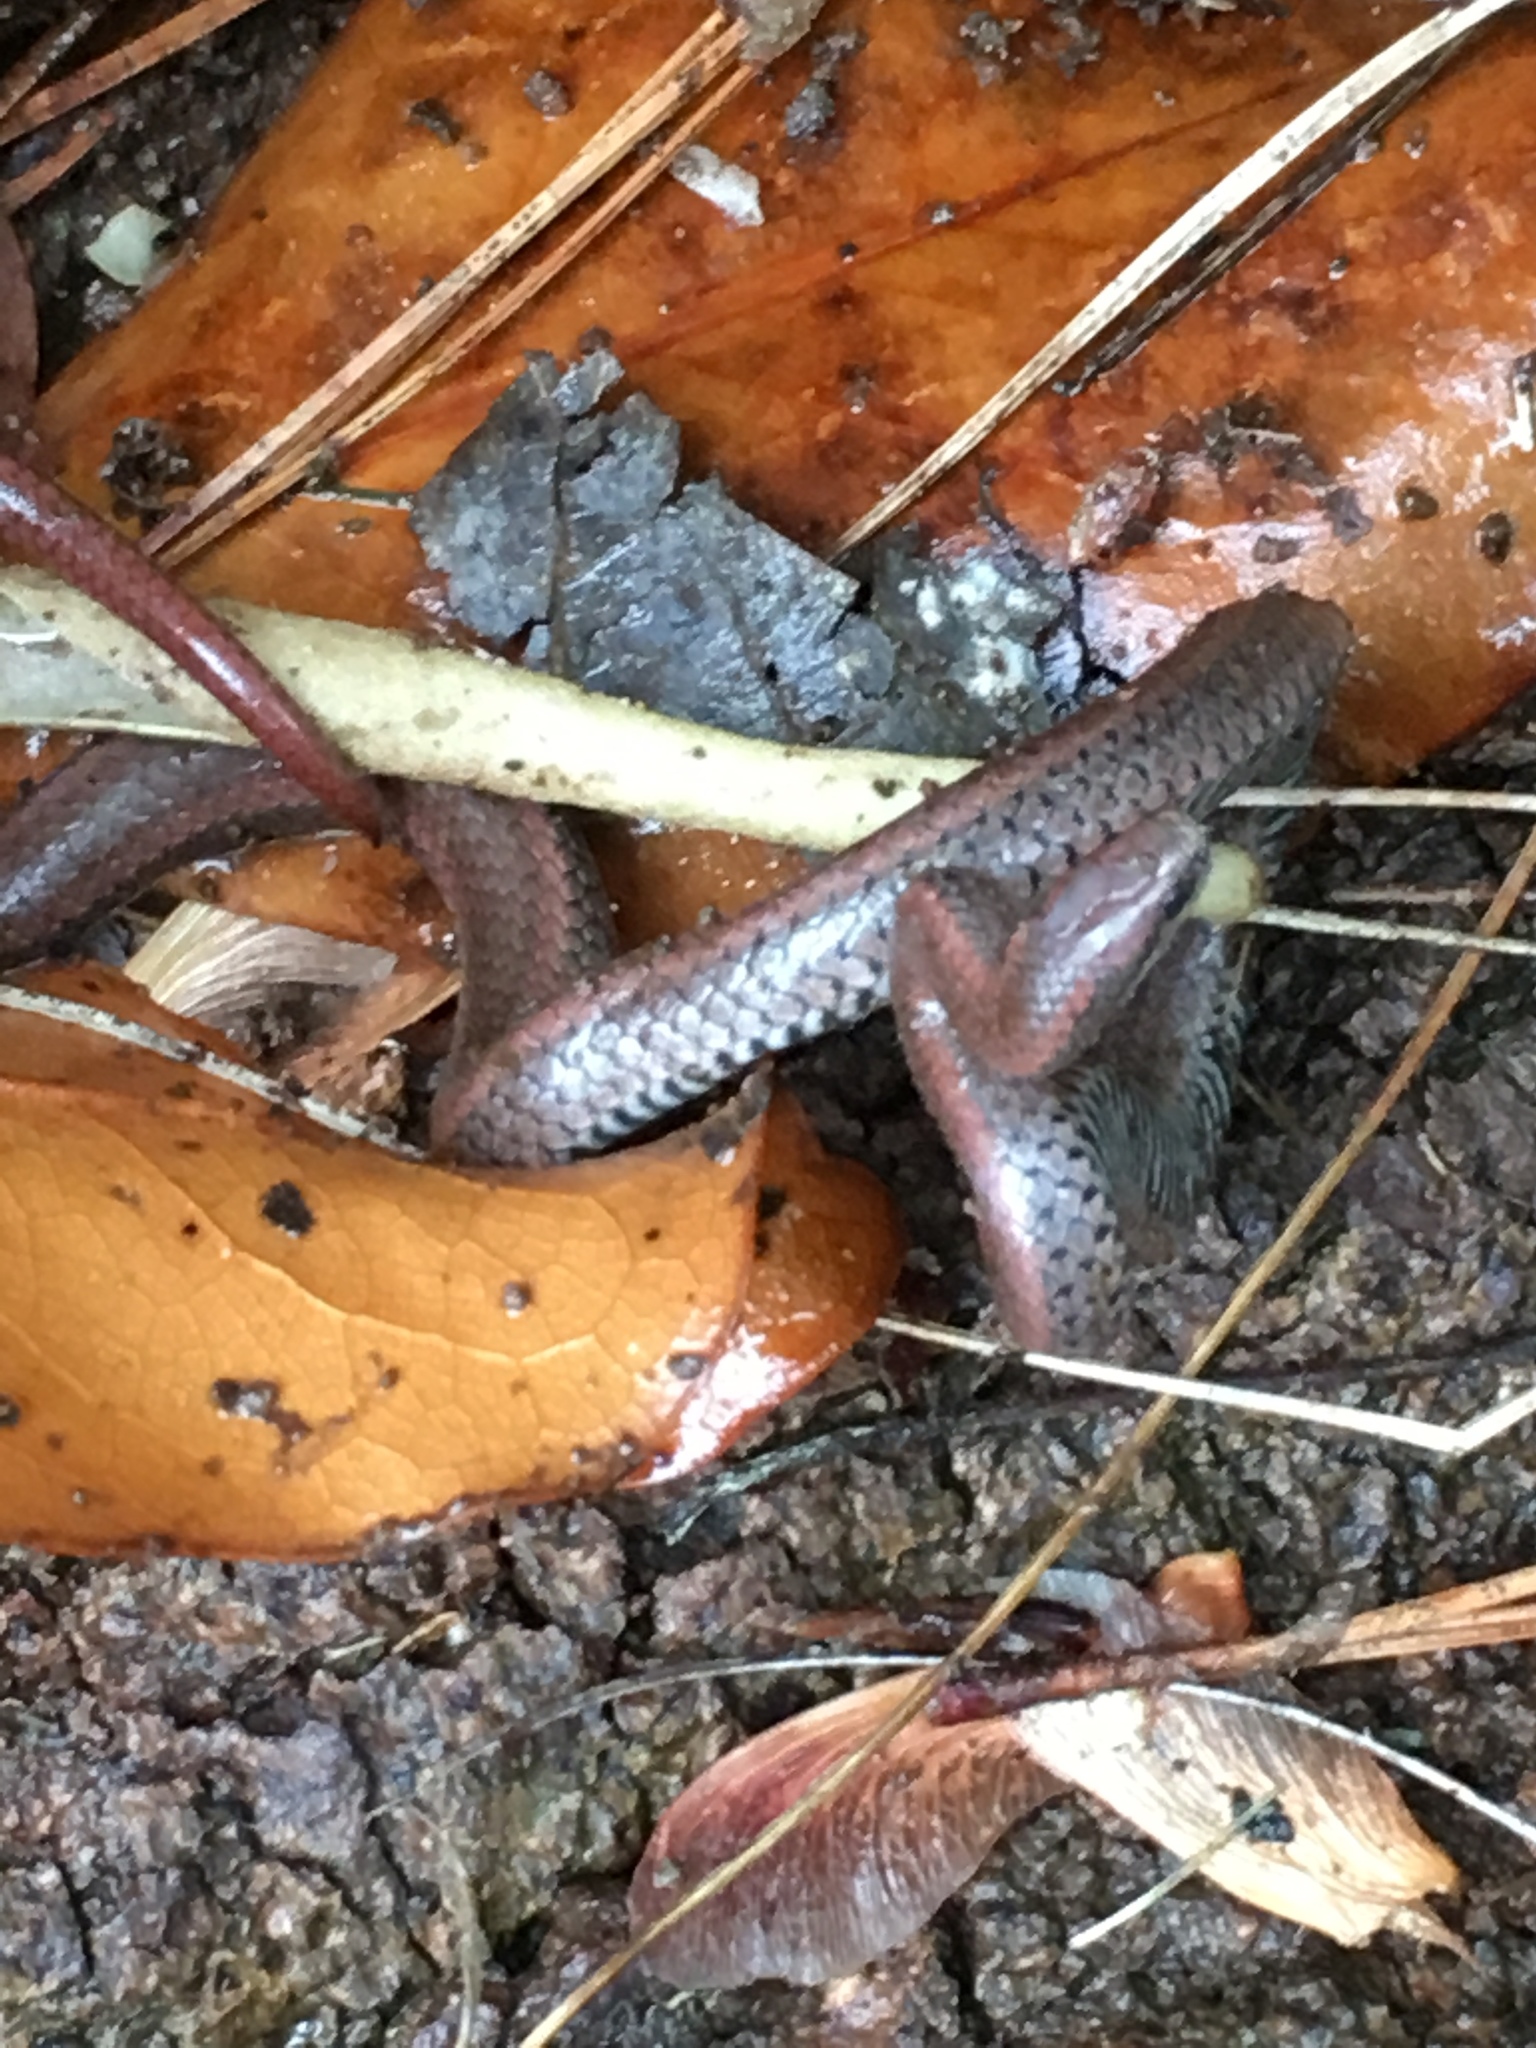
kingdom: Animalia
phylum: Chordata
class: Squamata
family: Colubridae
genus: Contia
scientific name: Contia tenuis
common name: Sharptail snake
